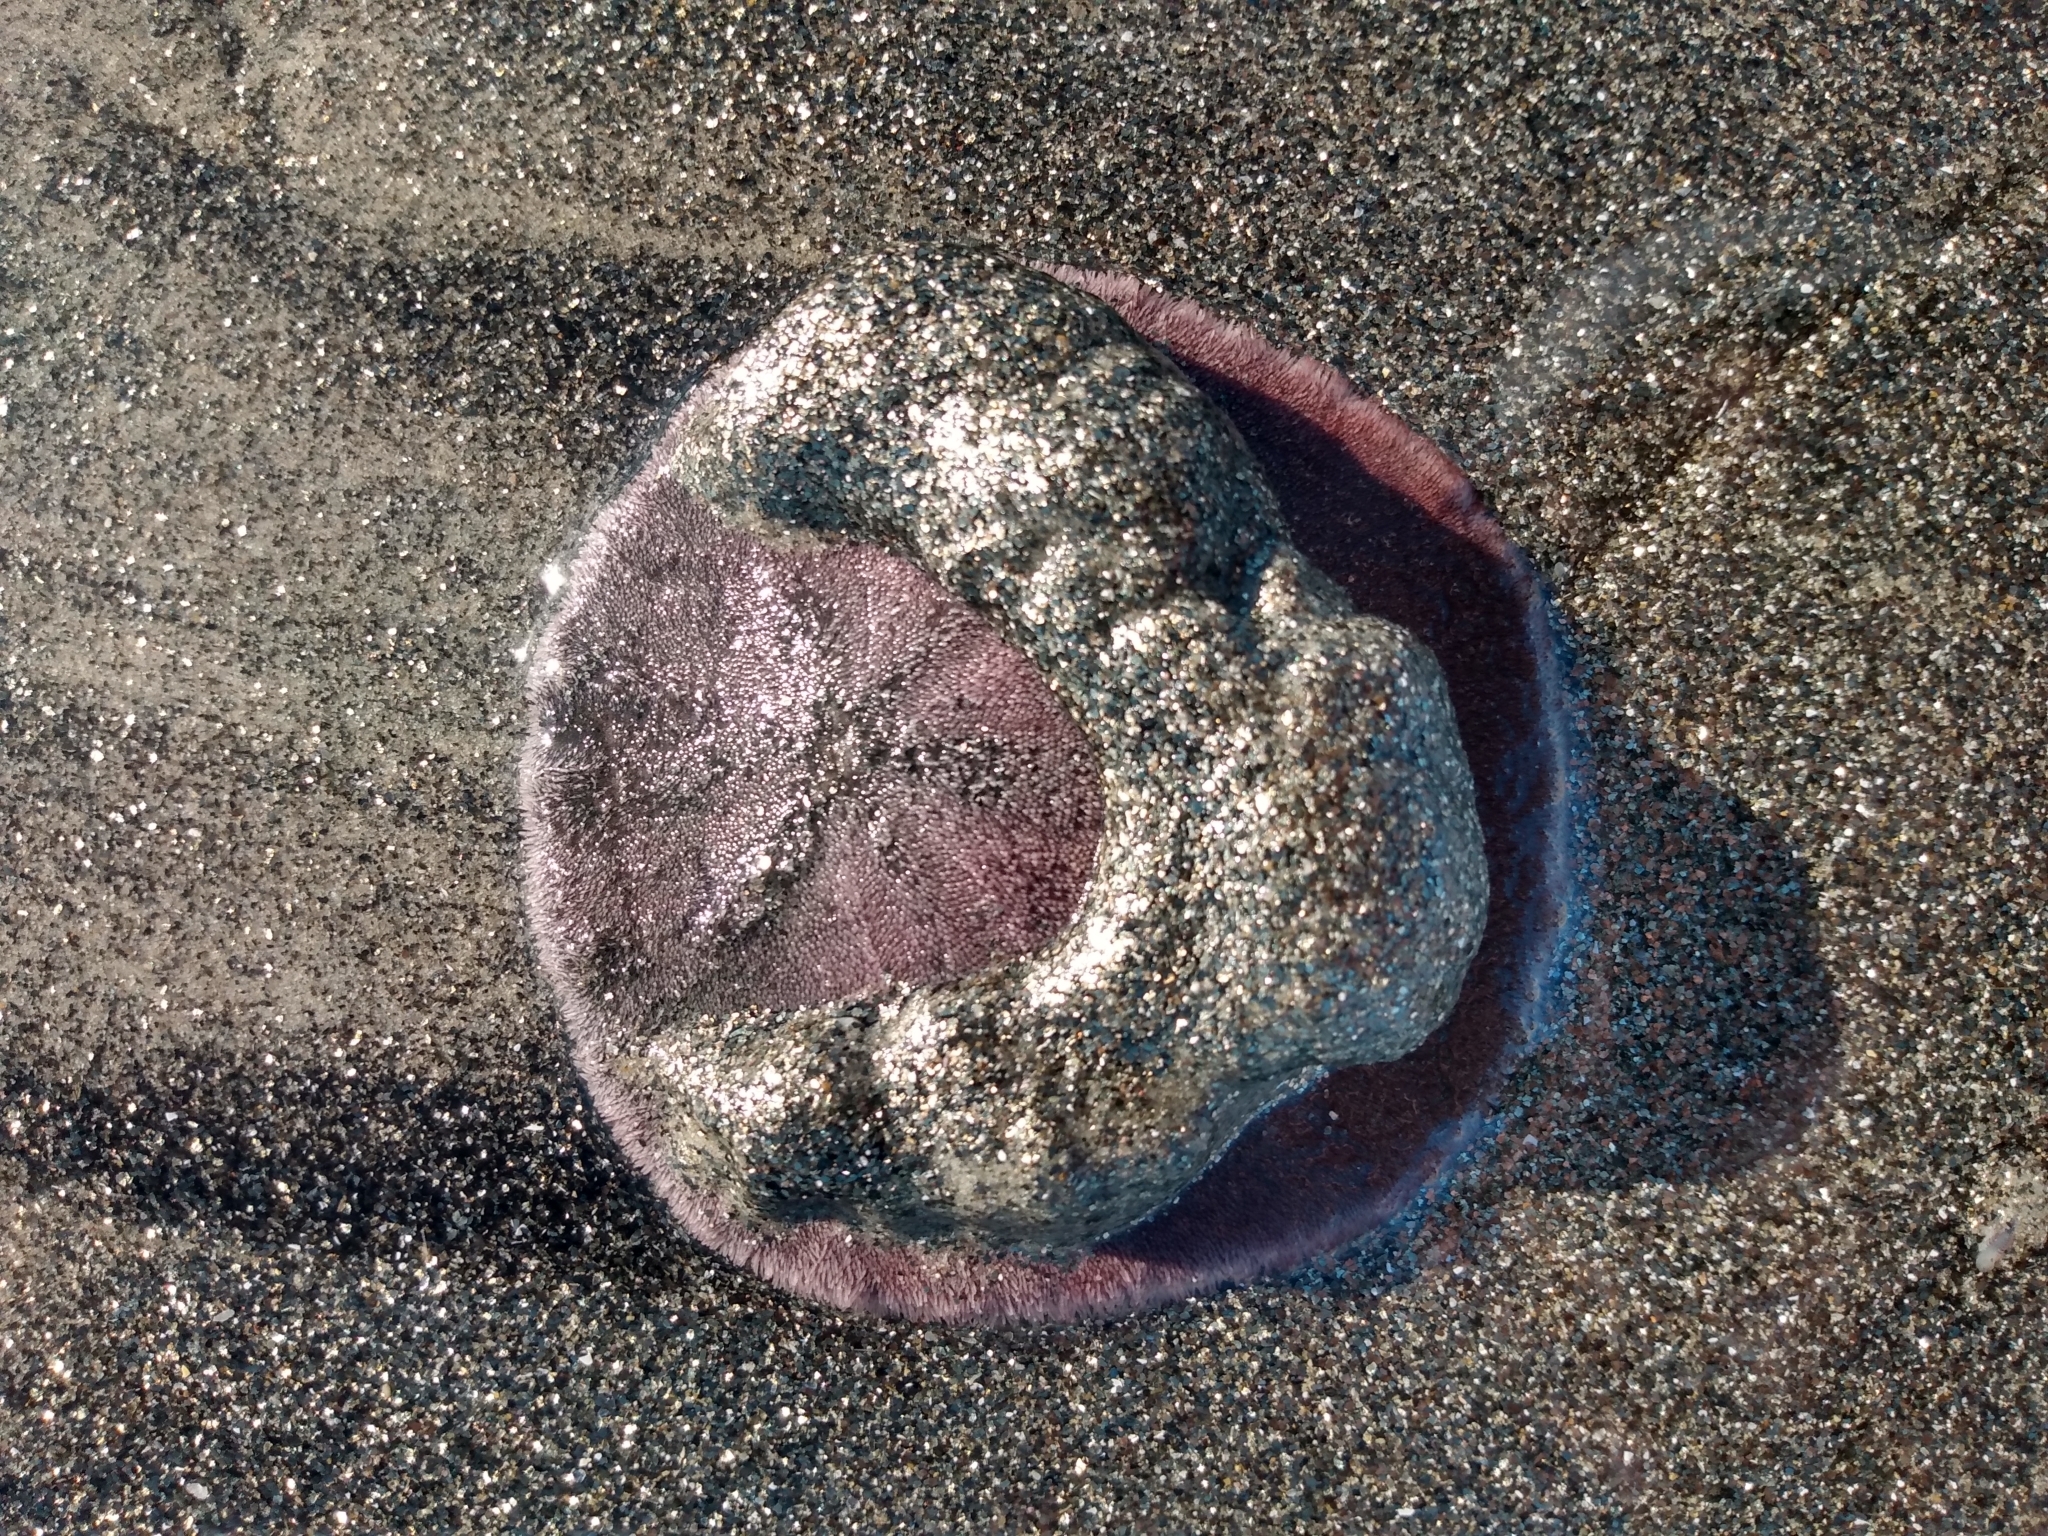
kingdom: Animalia
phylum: Echinodermata
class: Echinoidea
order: Echinolampadacea
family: Dendrasteridae
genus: Dendraster
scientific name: Dendraster excentricus
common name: Eccentric sand dollar sea urchin
